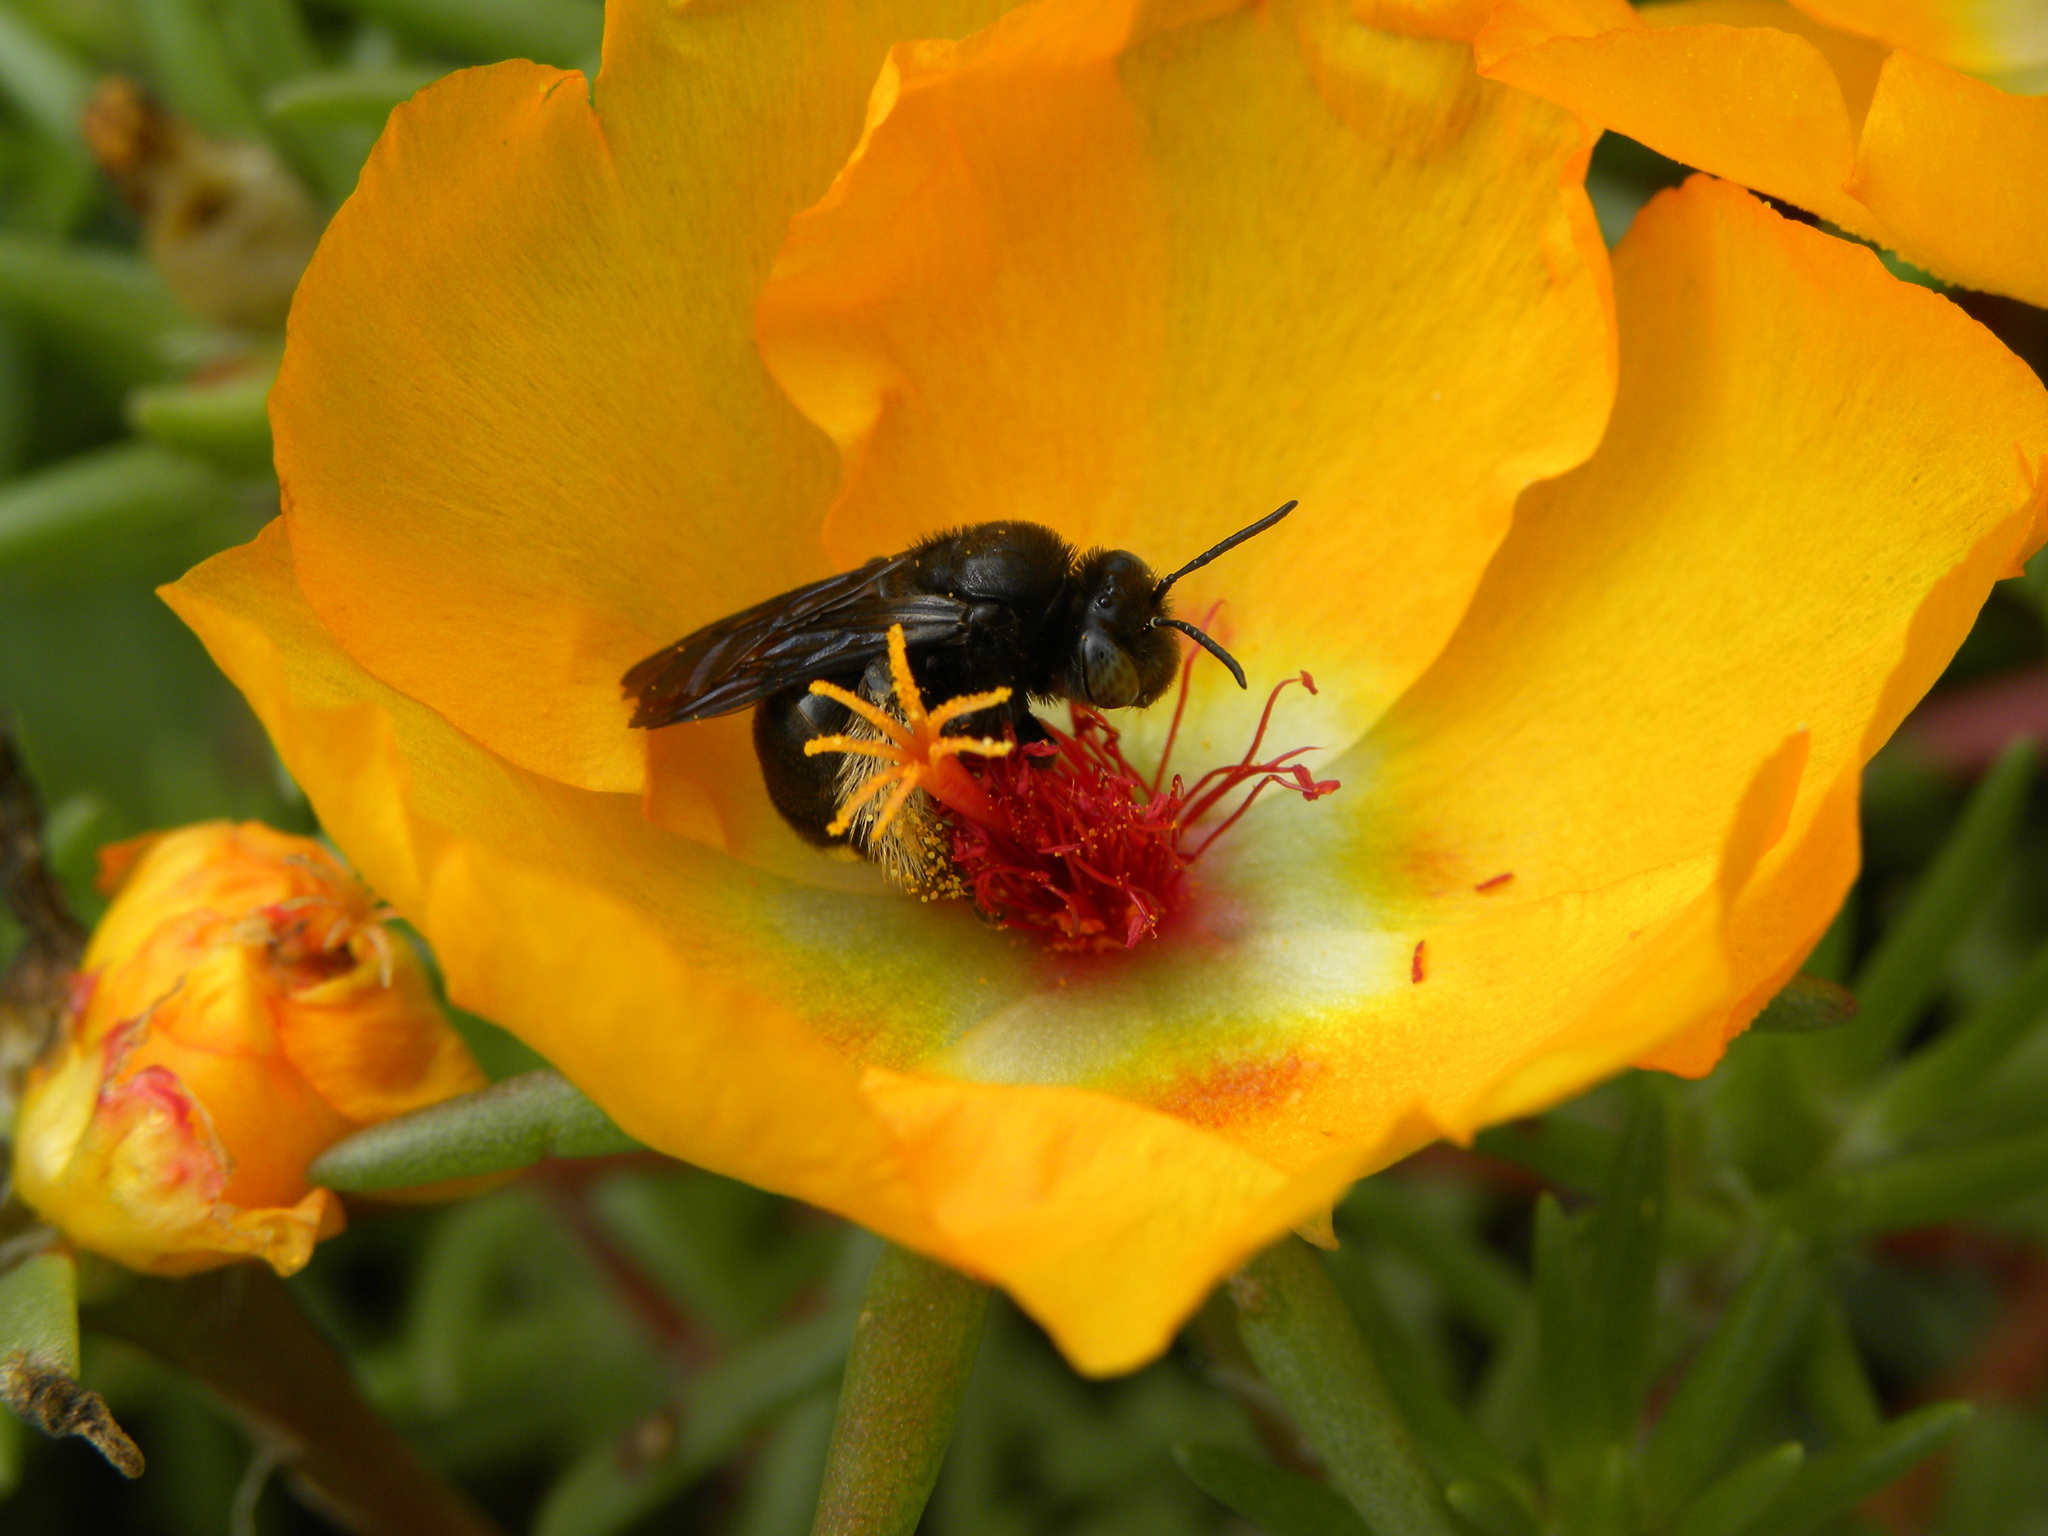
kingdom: Animalia
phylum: Arthropoda
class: Insecta
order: Hymenoptera
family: Apidae
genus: Melissodes
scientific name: Melissodes bimaculatus
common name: Two-spotted long-horned bee
